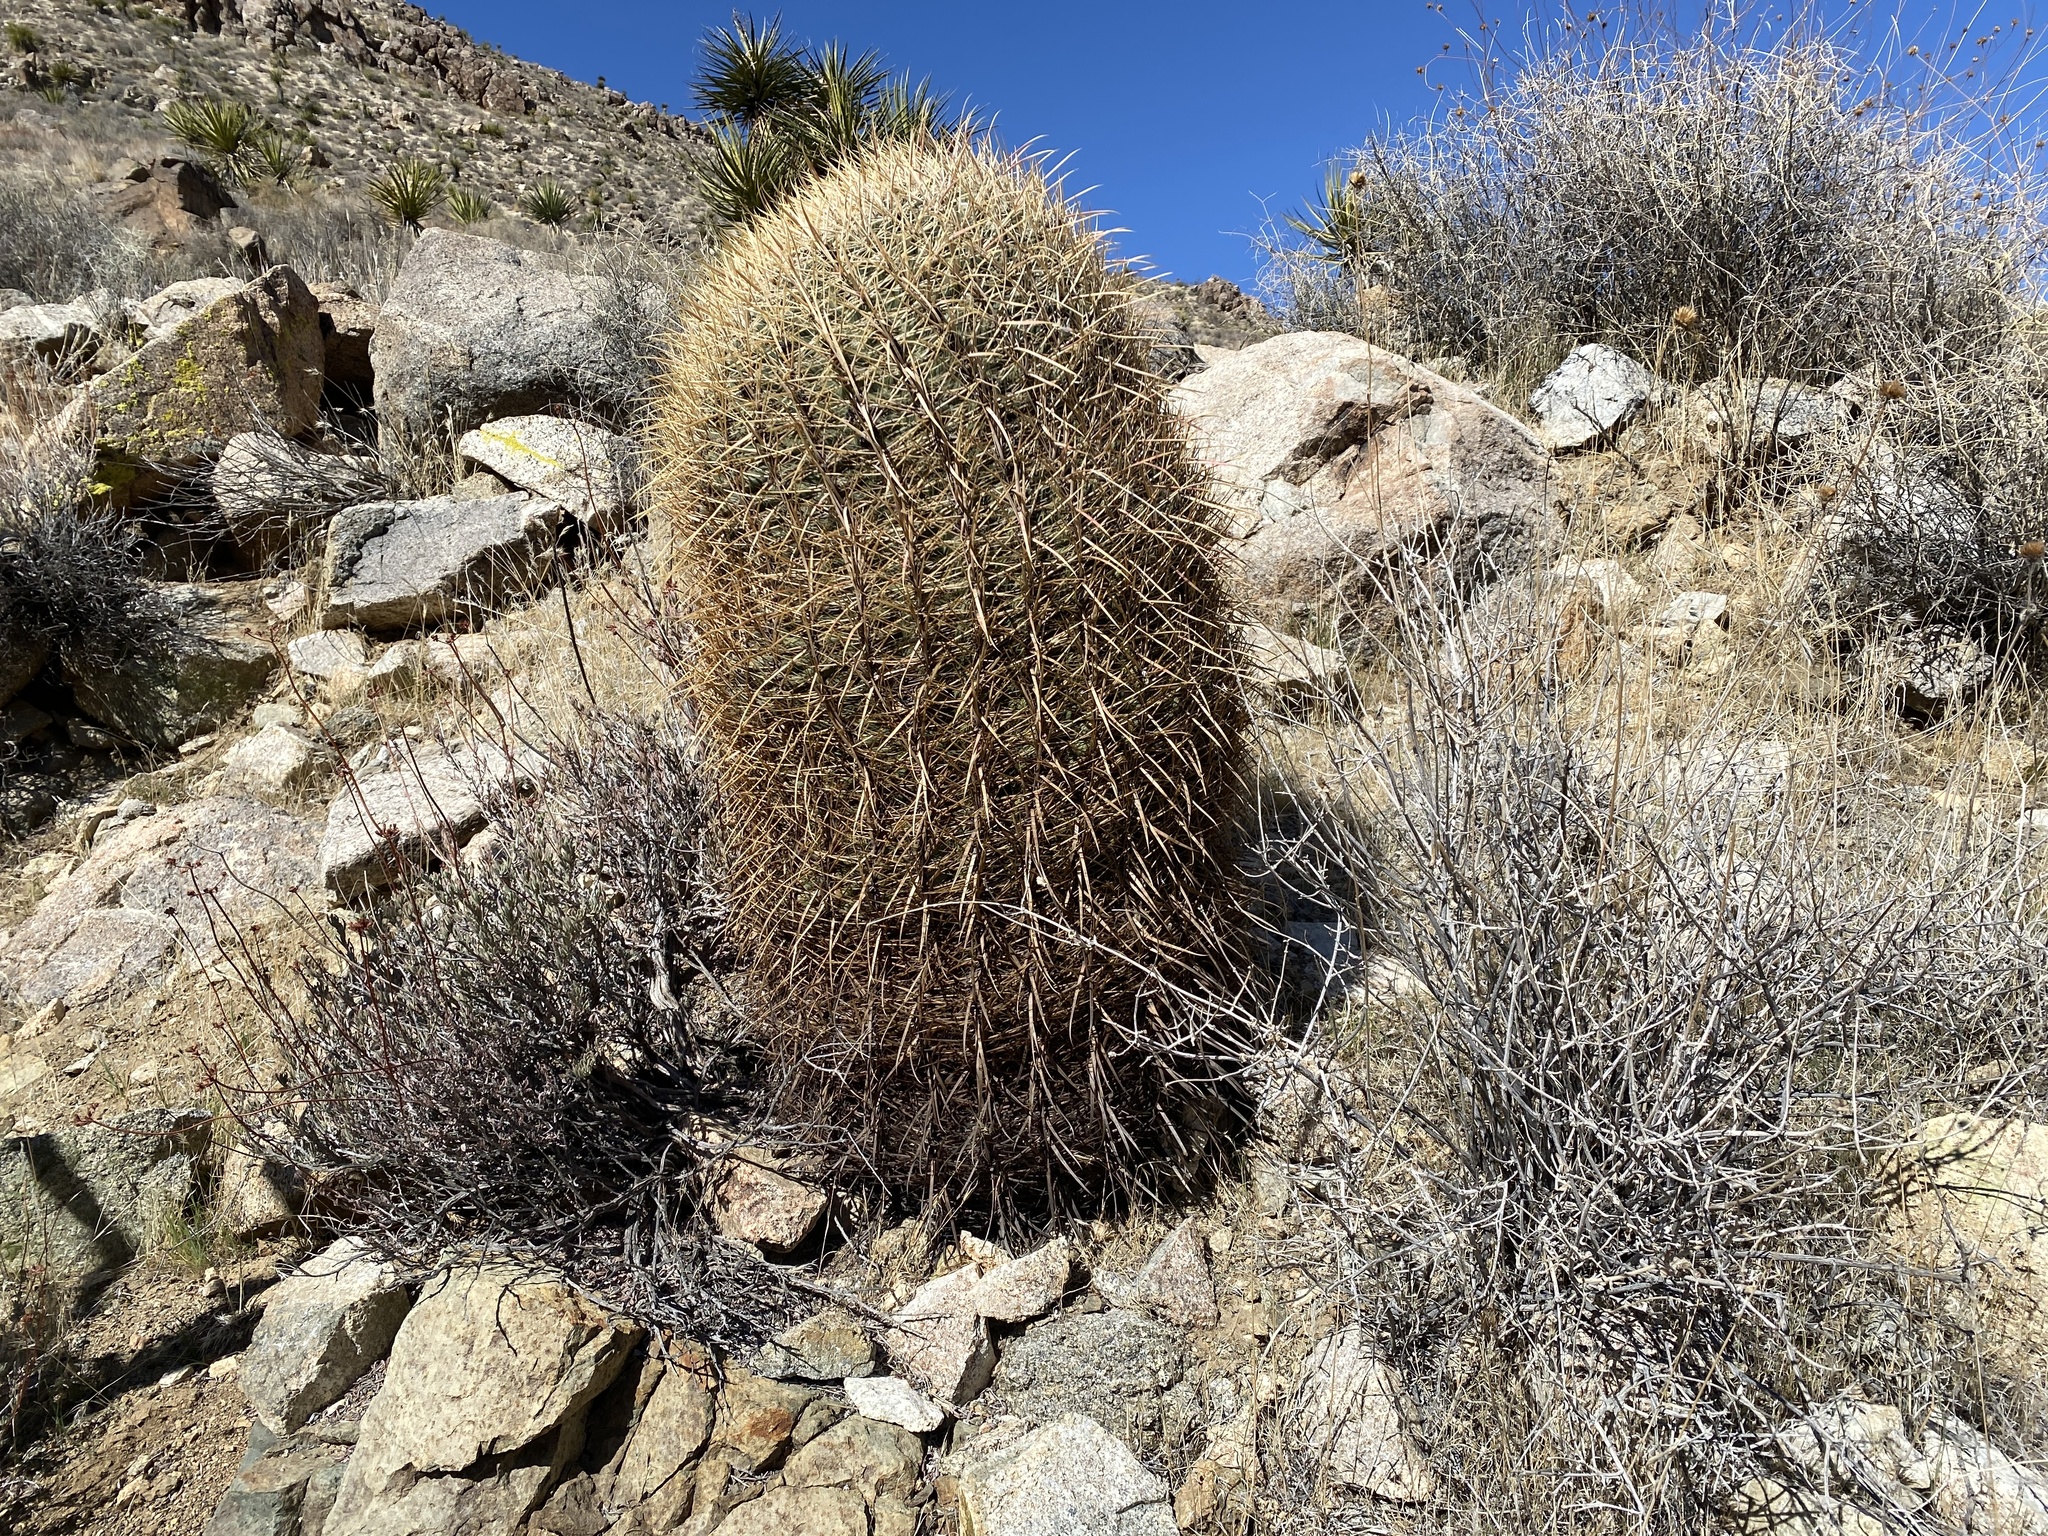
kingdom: Plantae
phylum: Tracheophyta
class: Magnoliopsida
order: Caryophyllales
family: Cactaceae
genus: Ferocactus
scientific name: Ferocactus cylindraceus
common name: California barrel cactus
